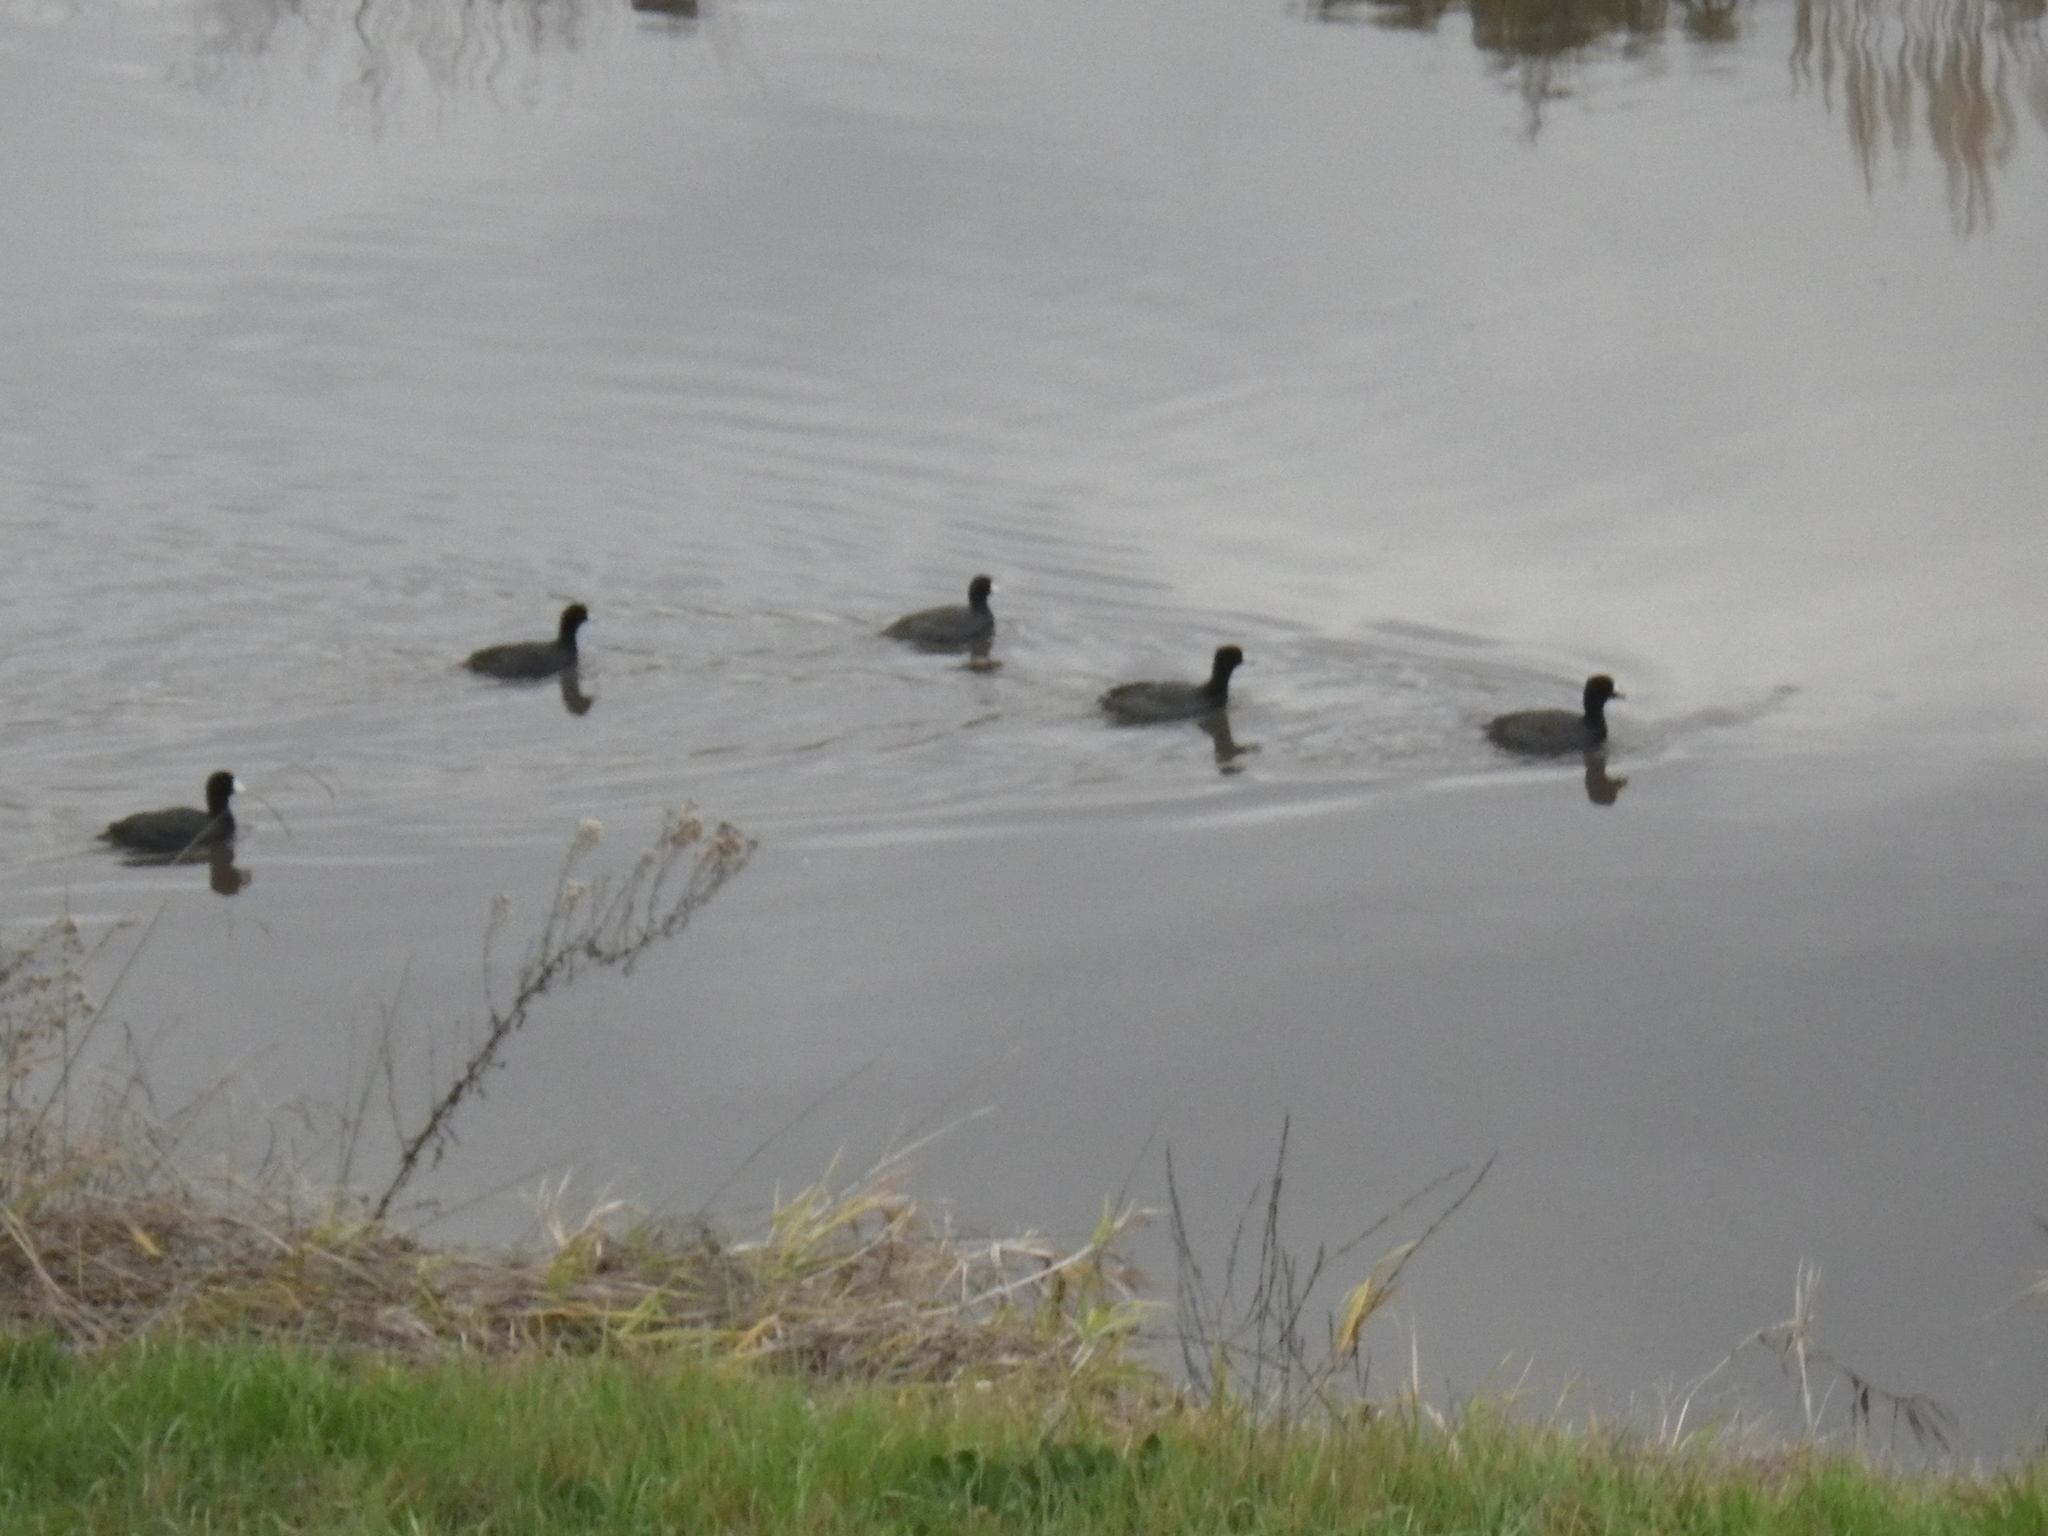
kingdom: Animalia
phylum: Chordata
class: Aves
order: Gruiformes
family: Rallidae
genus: Fulica
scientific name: Fulica americana
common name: American coot
